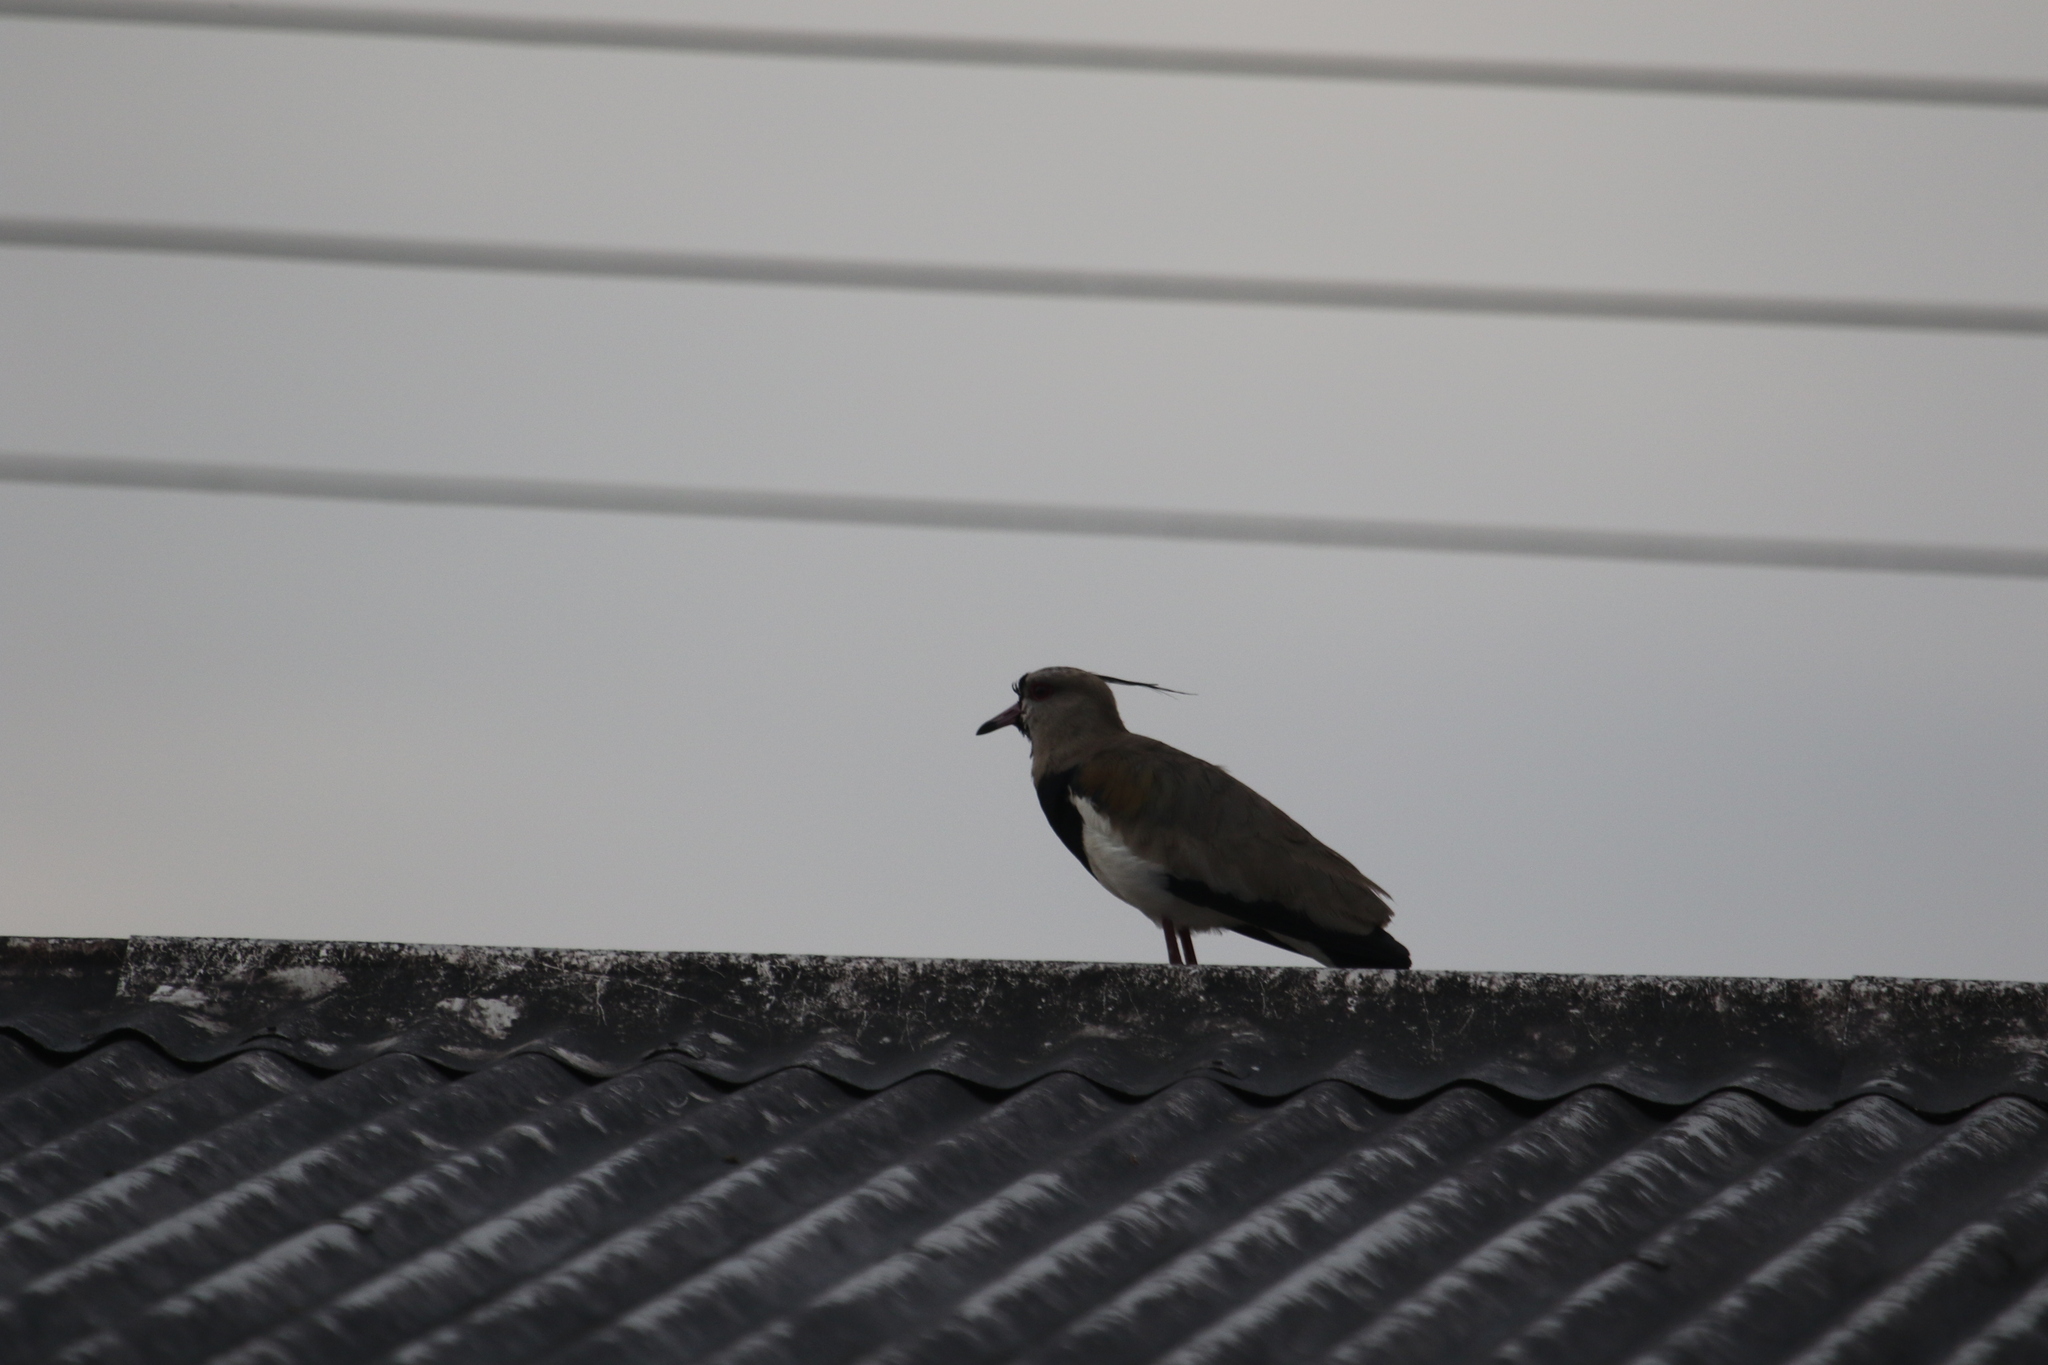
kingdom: Animalia
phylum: Chordata
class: Aves
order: Charadriiformes
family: Charadriidae
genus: Vanellus
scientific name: Vanellus chilensis
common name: Southern lapwing
